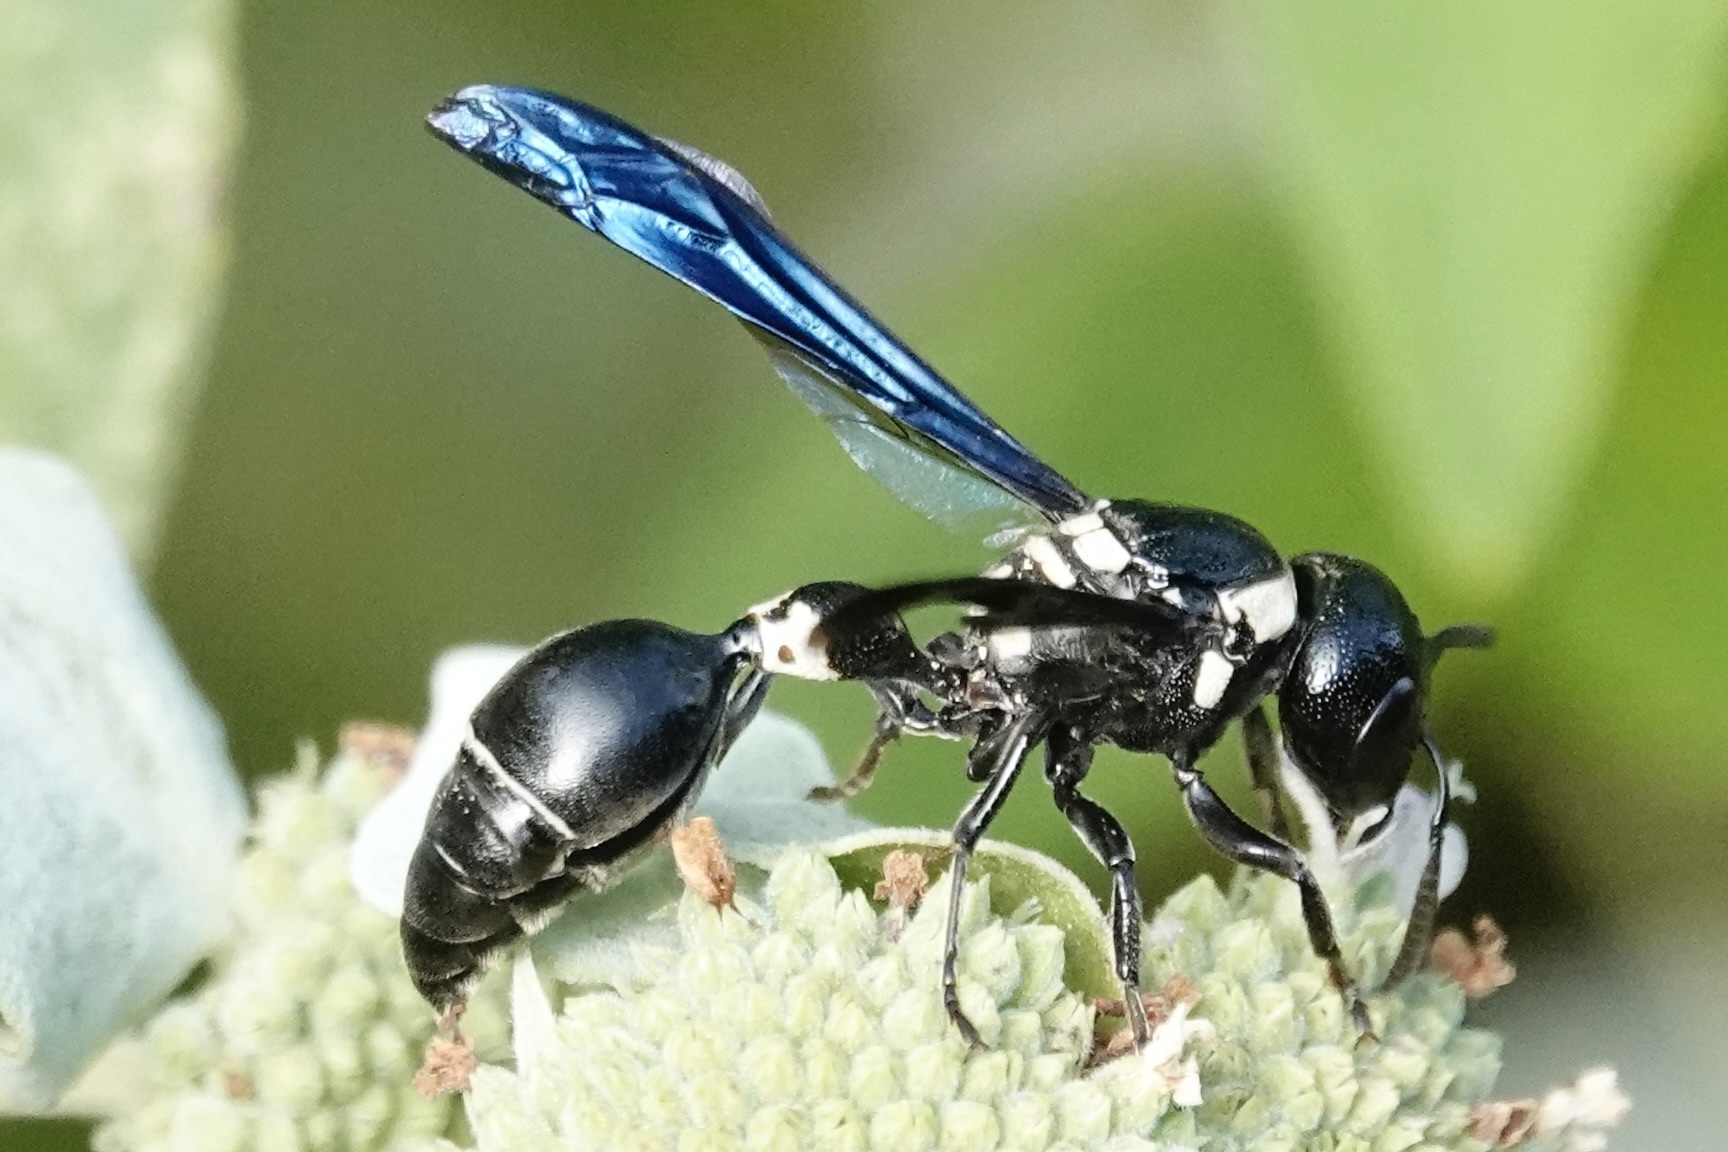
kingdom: Animalia
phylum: Arthropoda
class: Insecta
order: Hymenoptera
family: Eumenidae
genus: Zethus
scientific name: Zethus spinipes
